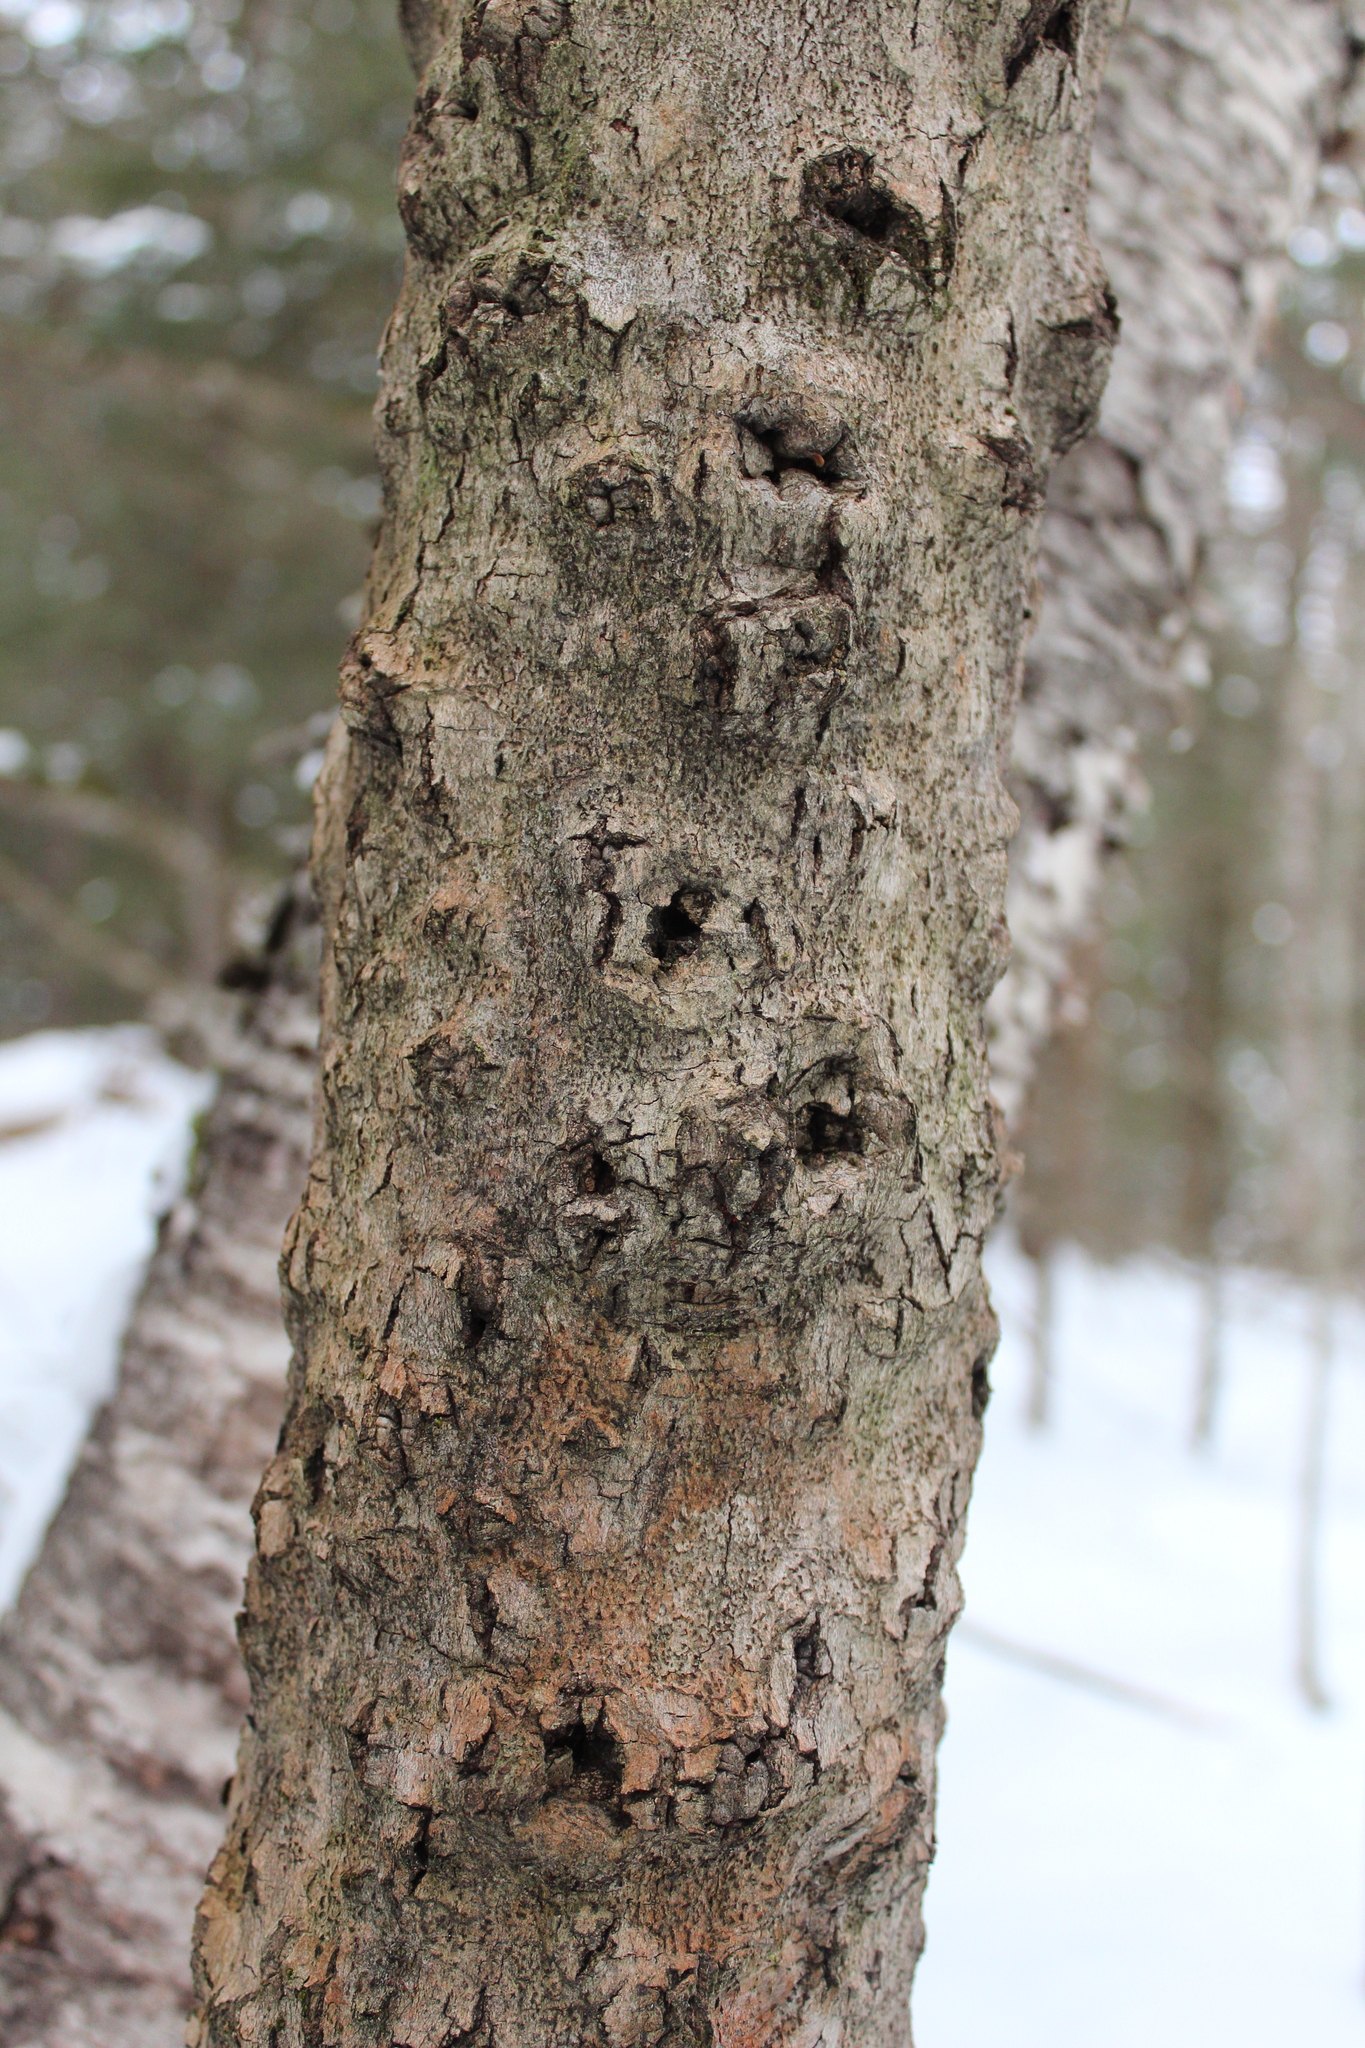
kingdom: Fungi
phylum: Ascomycota
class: Sordariomycetes
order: Hypocreales
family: Nectriaceae
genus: Neonectria
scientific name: Neonectria faginata
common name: Beech bark canker
